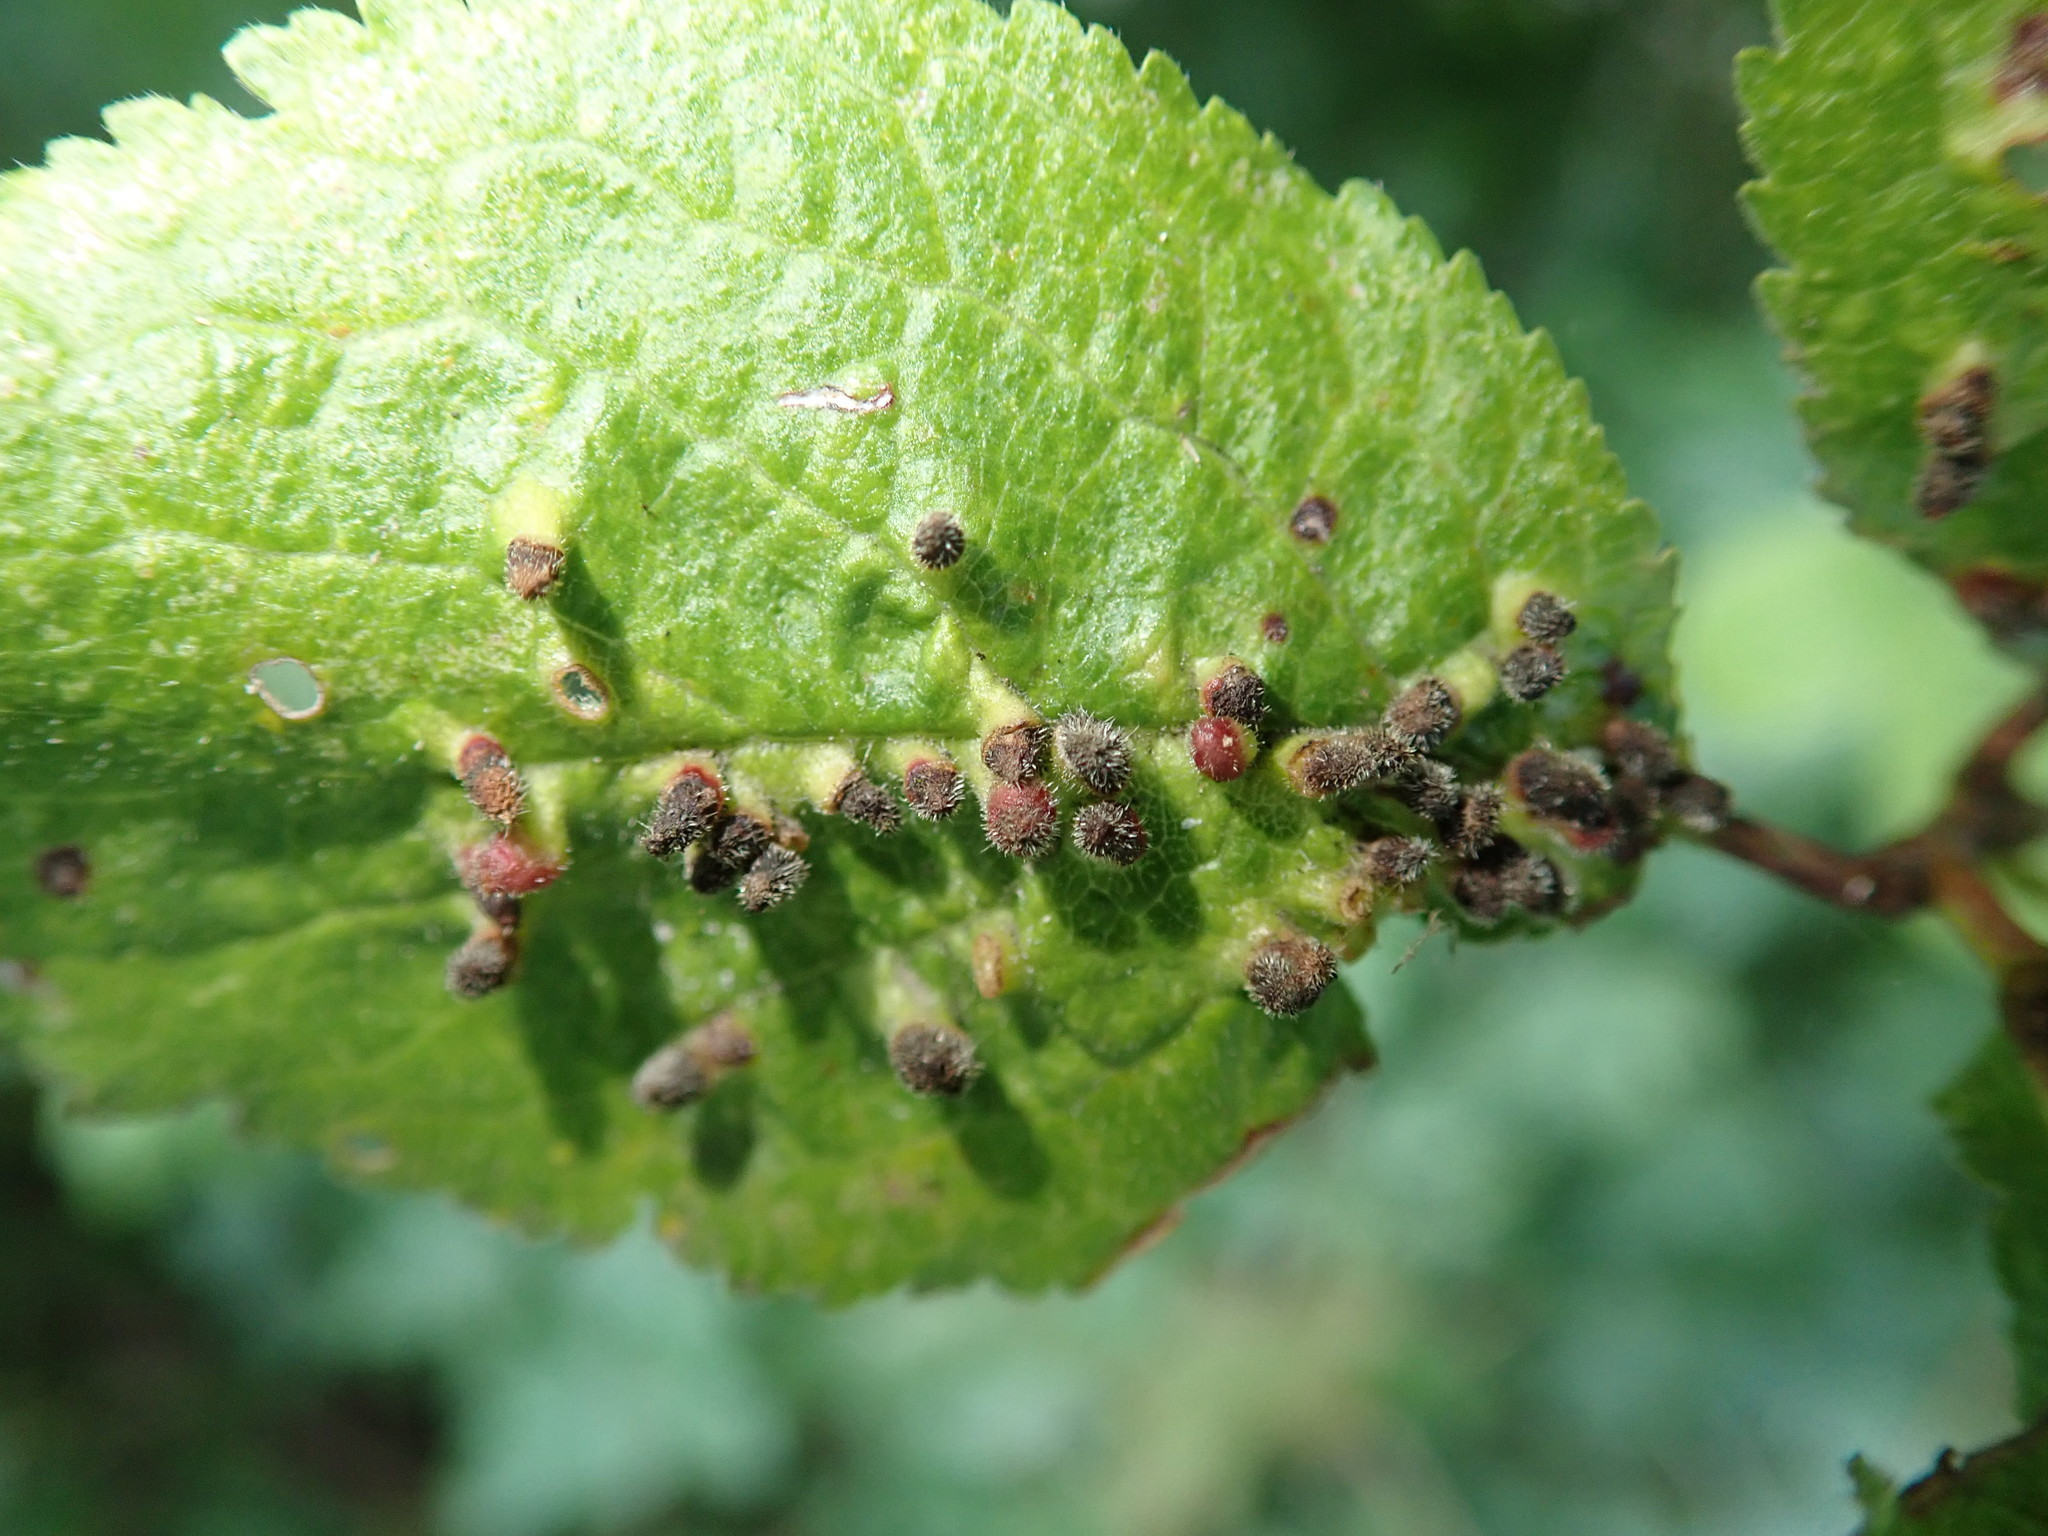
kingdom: Animalia
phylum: Arthropoda
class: Arachnida
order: Trombidiformes
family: Eriophyidae
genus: Eriophyes
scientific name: Eriophyes prunianus
